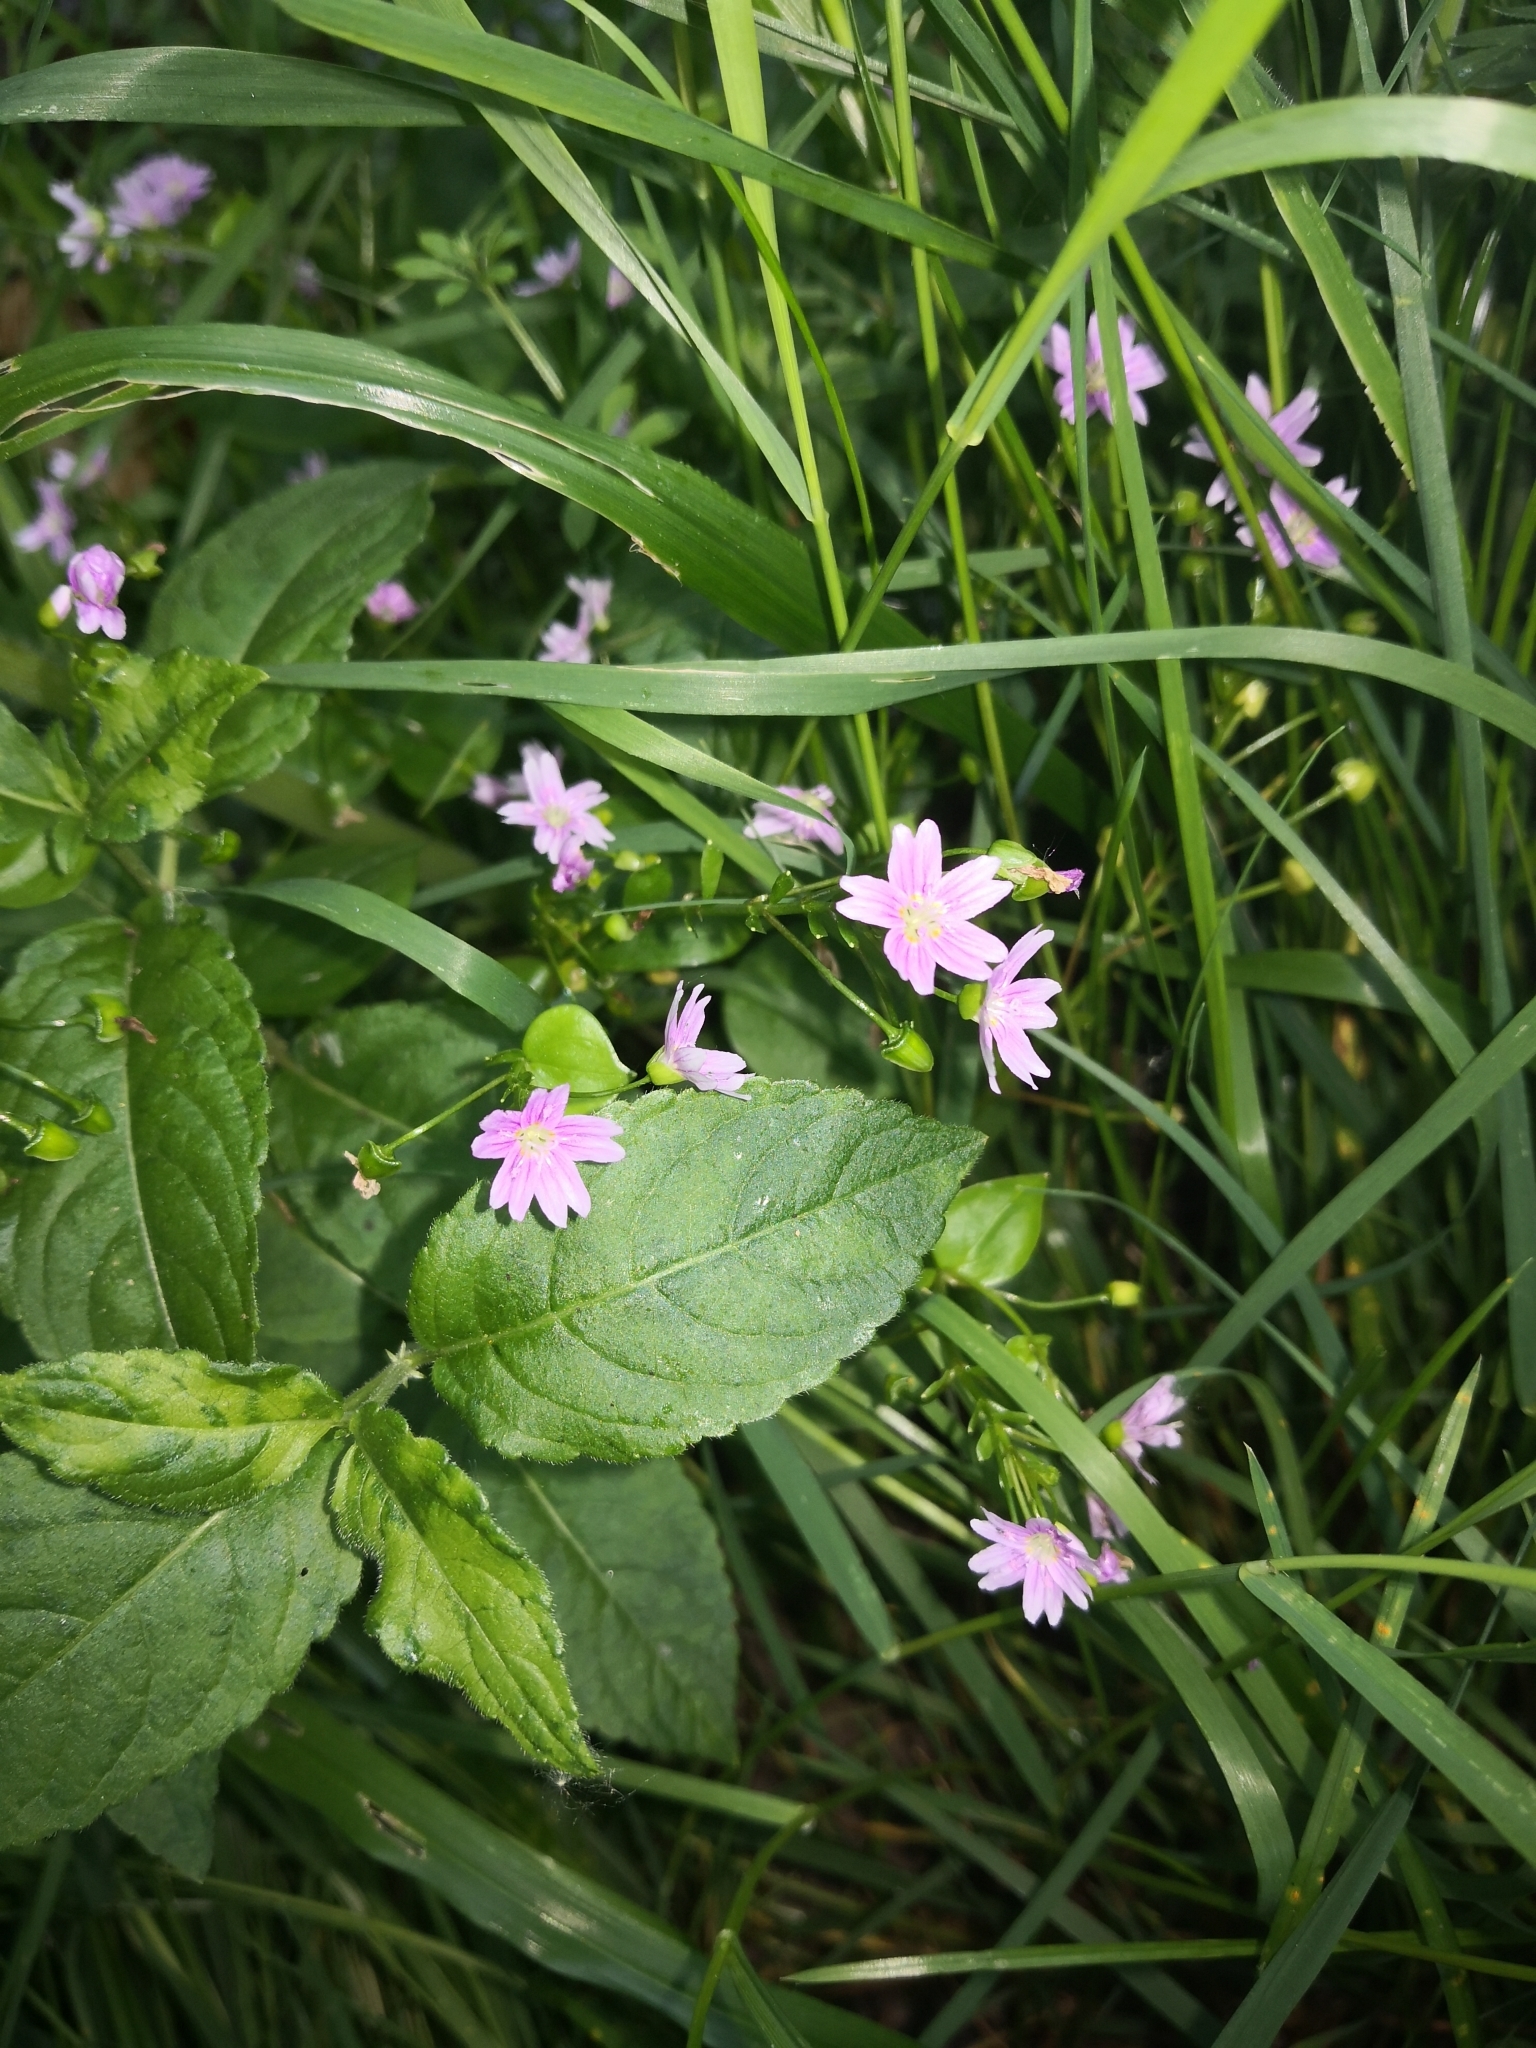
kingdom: Plantae
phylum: Tracheophyta
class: Magnoliopsida
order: Caryophyllales
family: Montiaceae
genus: Claytonia
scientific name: Claytonia sibirica
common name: Pink purslane
